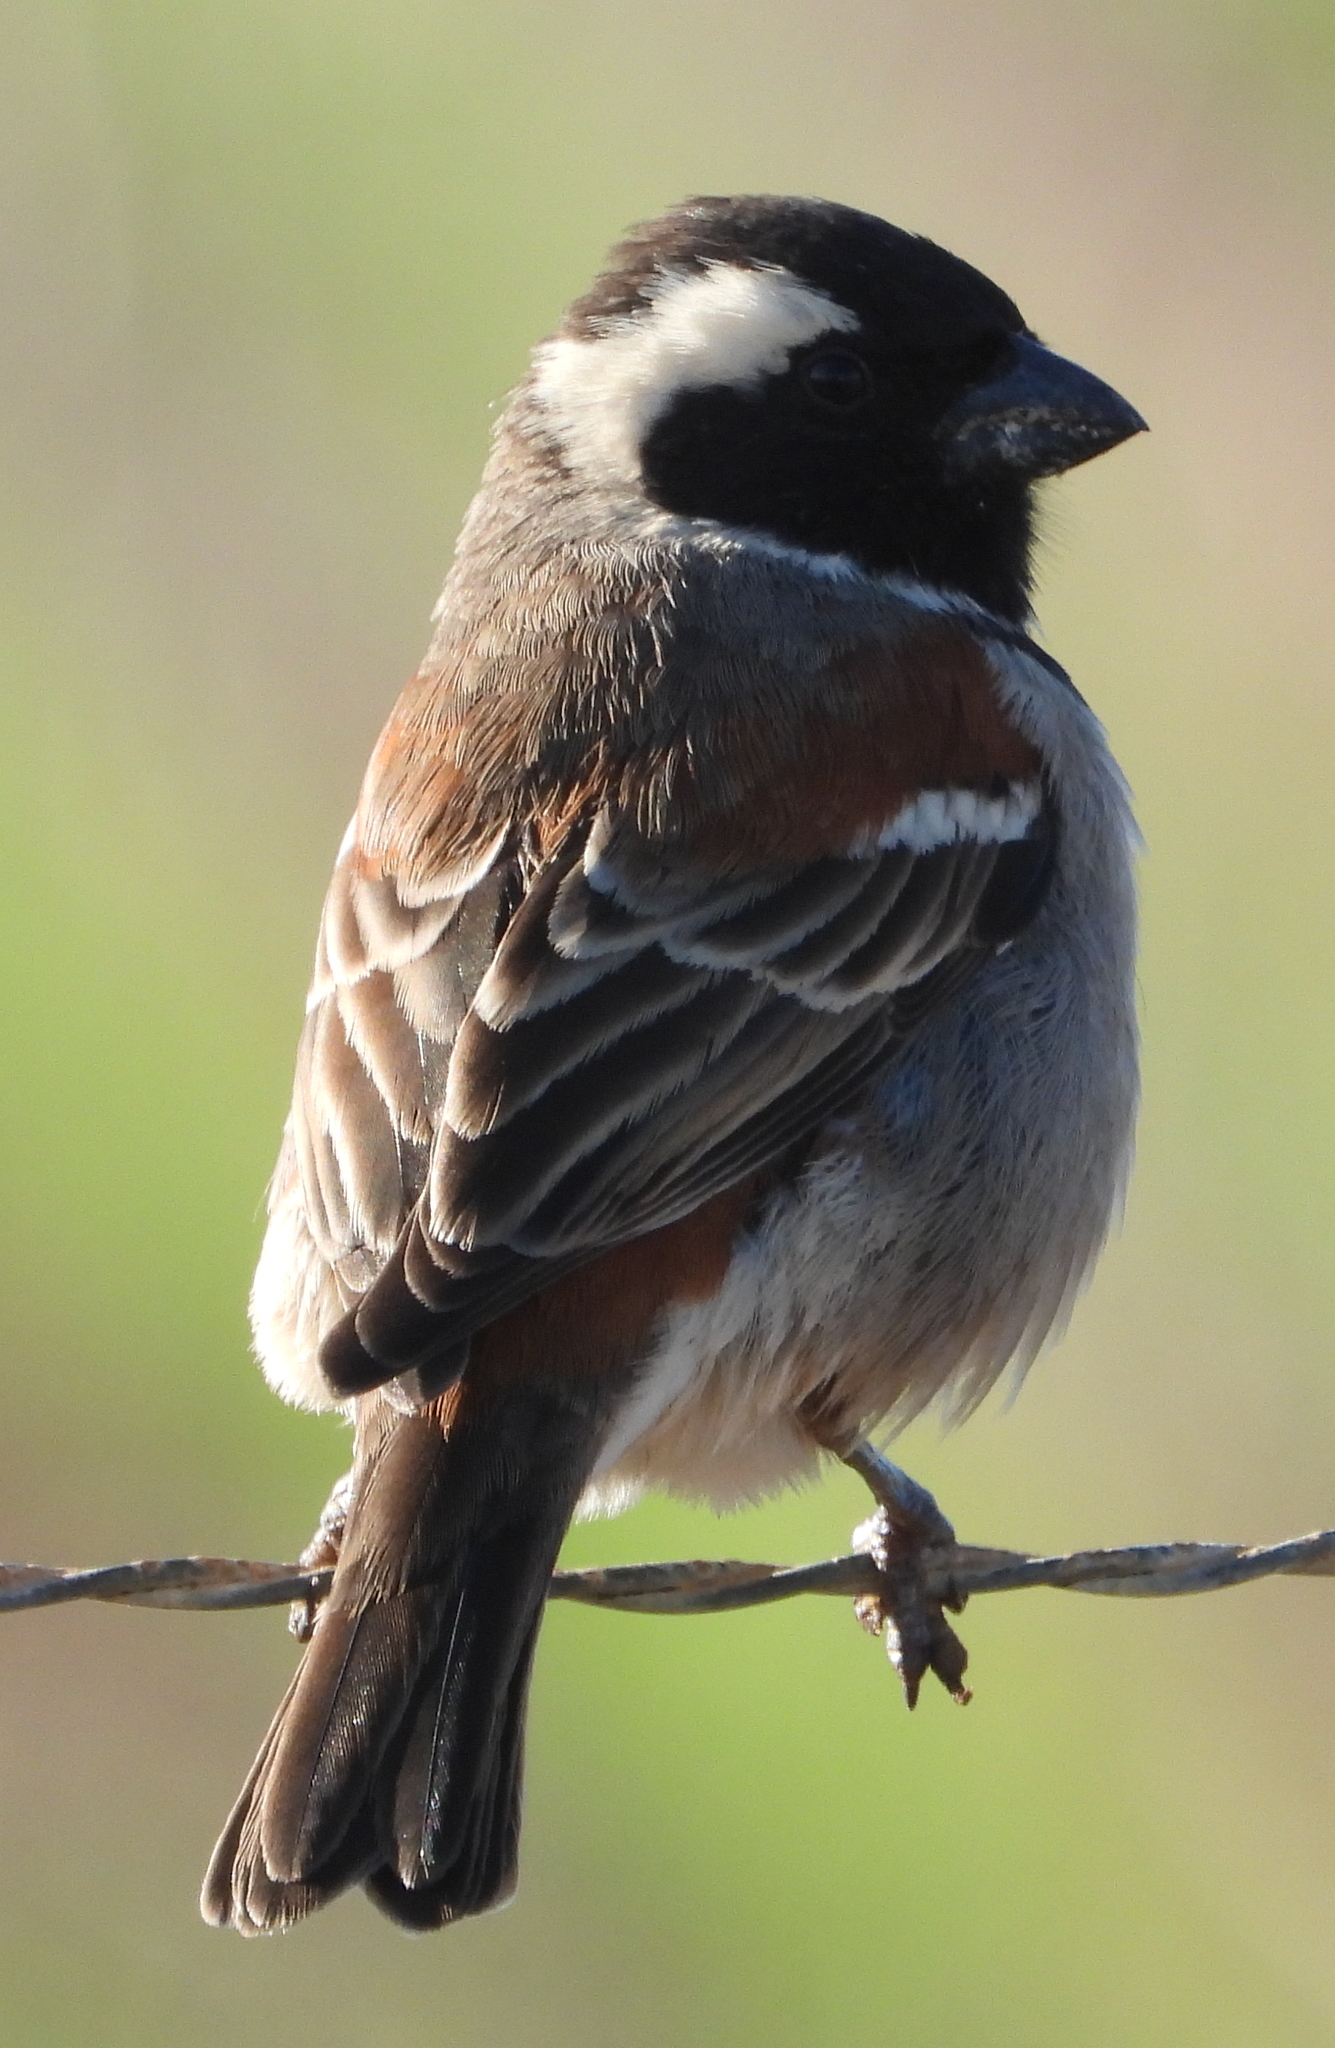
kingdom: Animalia
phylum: Chordata
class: Aves
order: Passeriformes
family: Passeridae
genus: Passer
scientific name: Passer melanurus
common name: Cape sparrow
